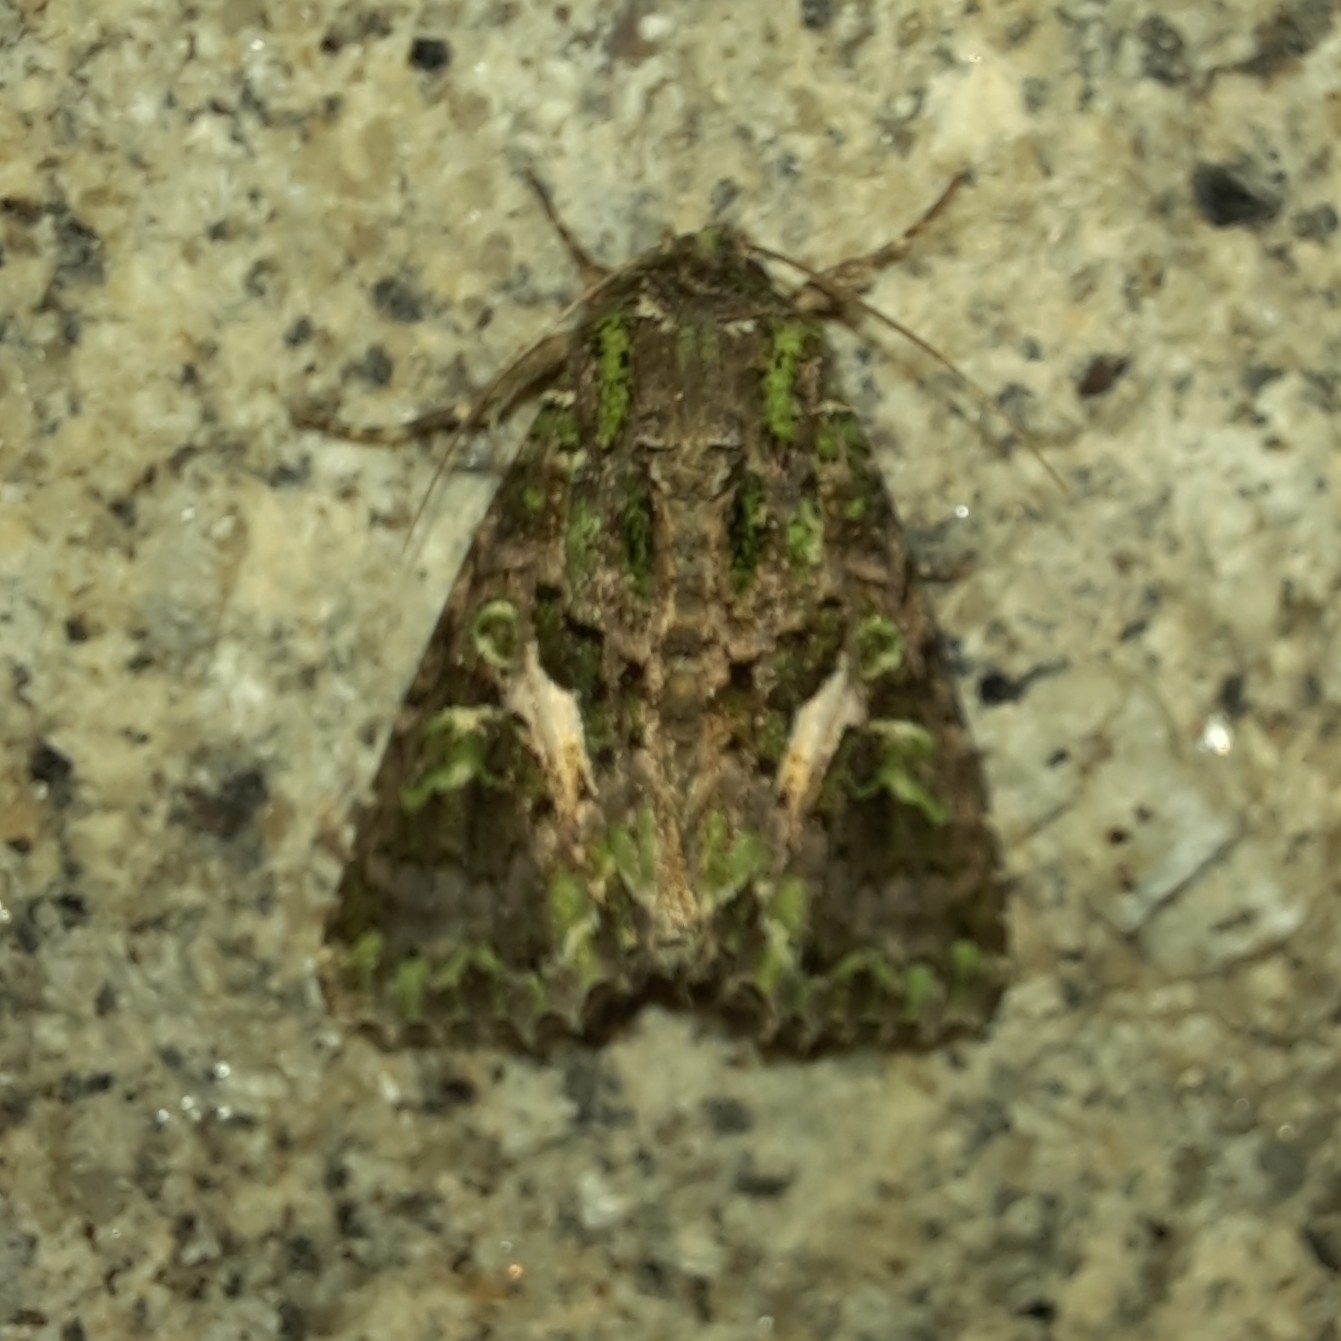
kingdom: Animalia
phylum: Arthropoda
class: Insecta
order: Lepidoptera
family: Noctuidae
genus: Trachea
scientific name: Trachea atriplicis
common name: Orache moth
